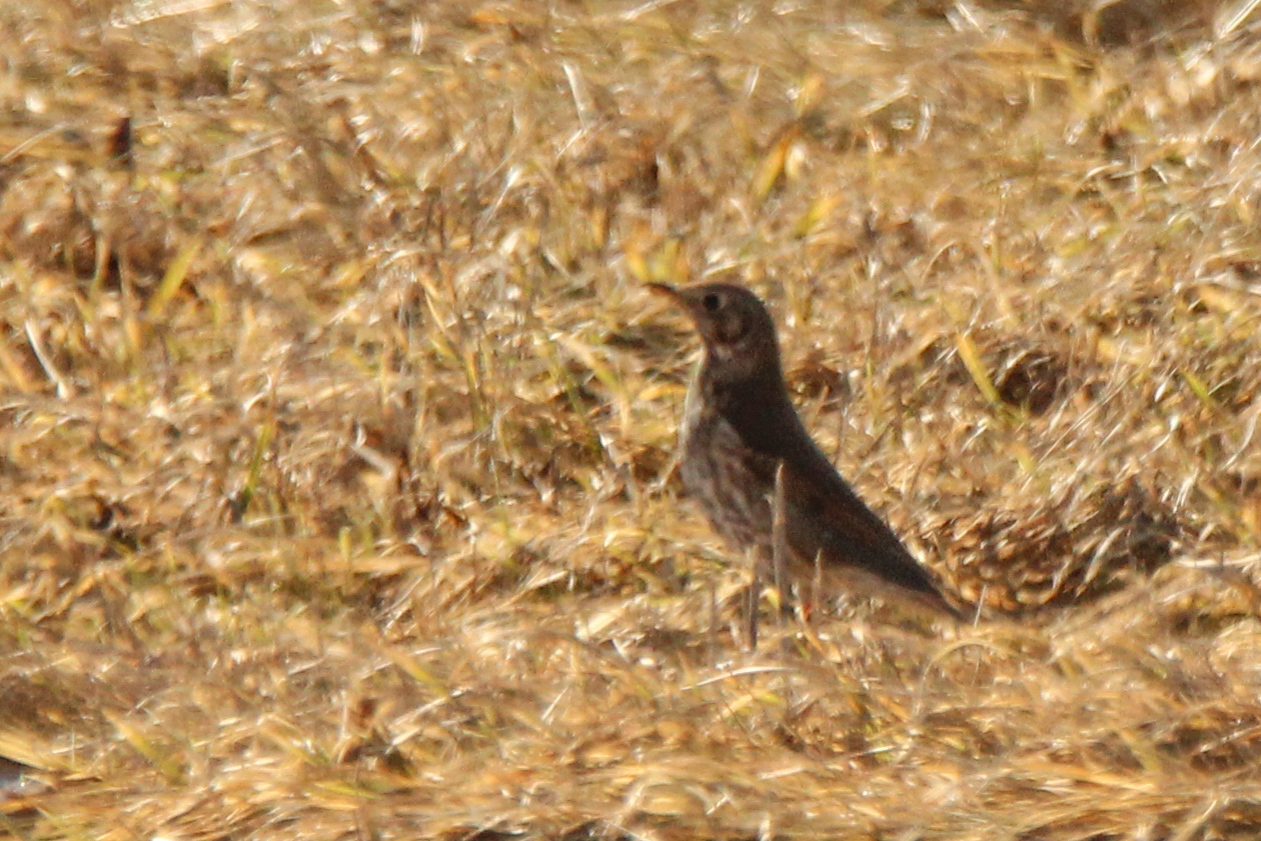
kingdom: Animalia
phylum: Chordata
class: Aves
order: Passeriformes
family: Turdidae
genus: Turdus
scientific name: Turdus philomelos
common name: Song thrush
